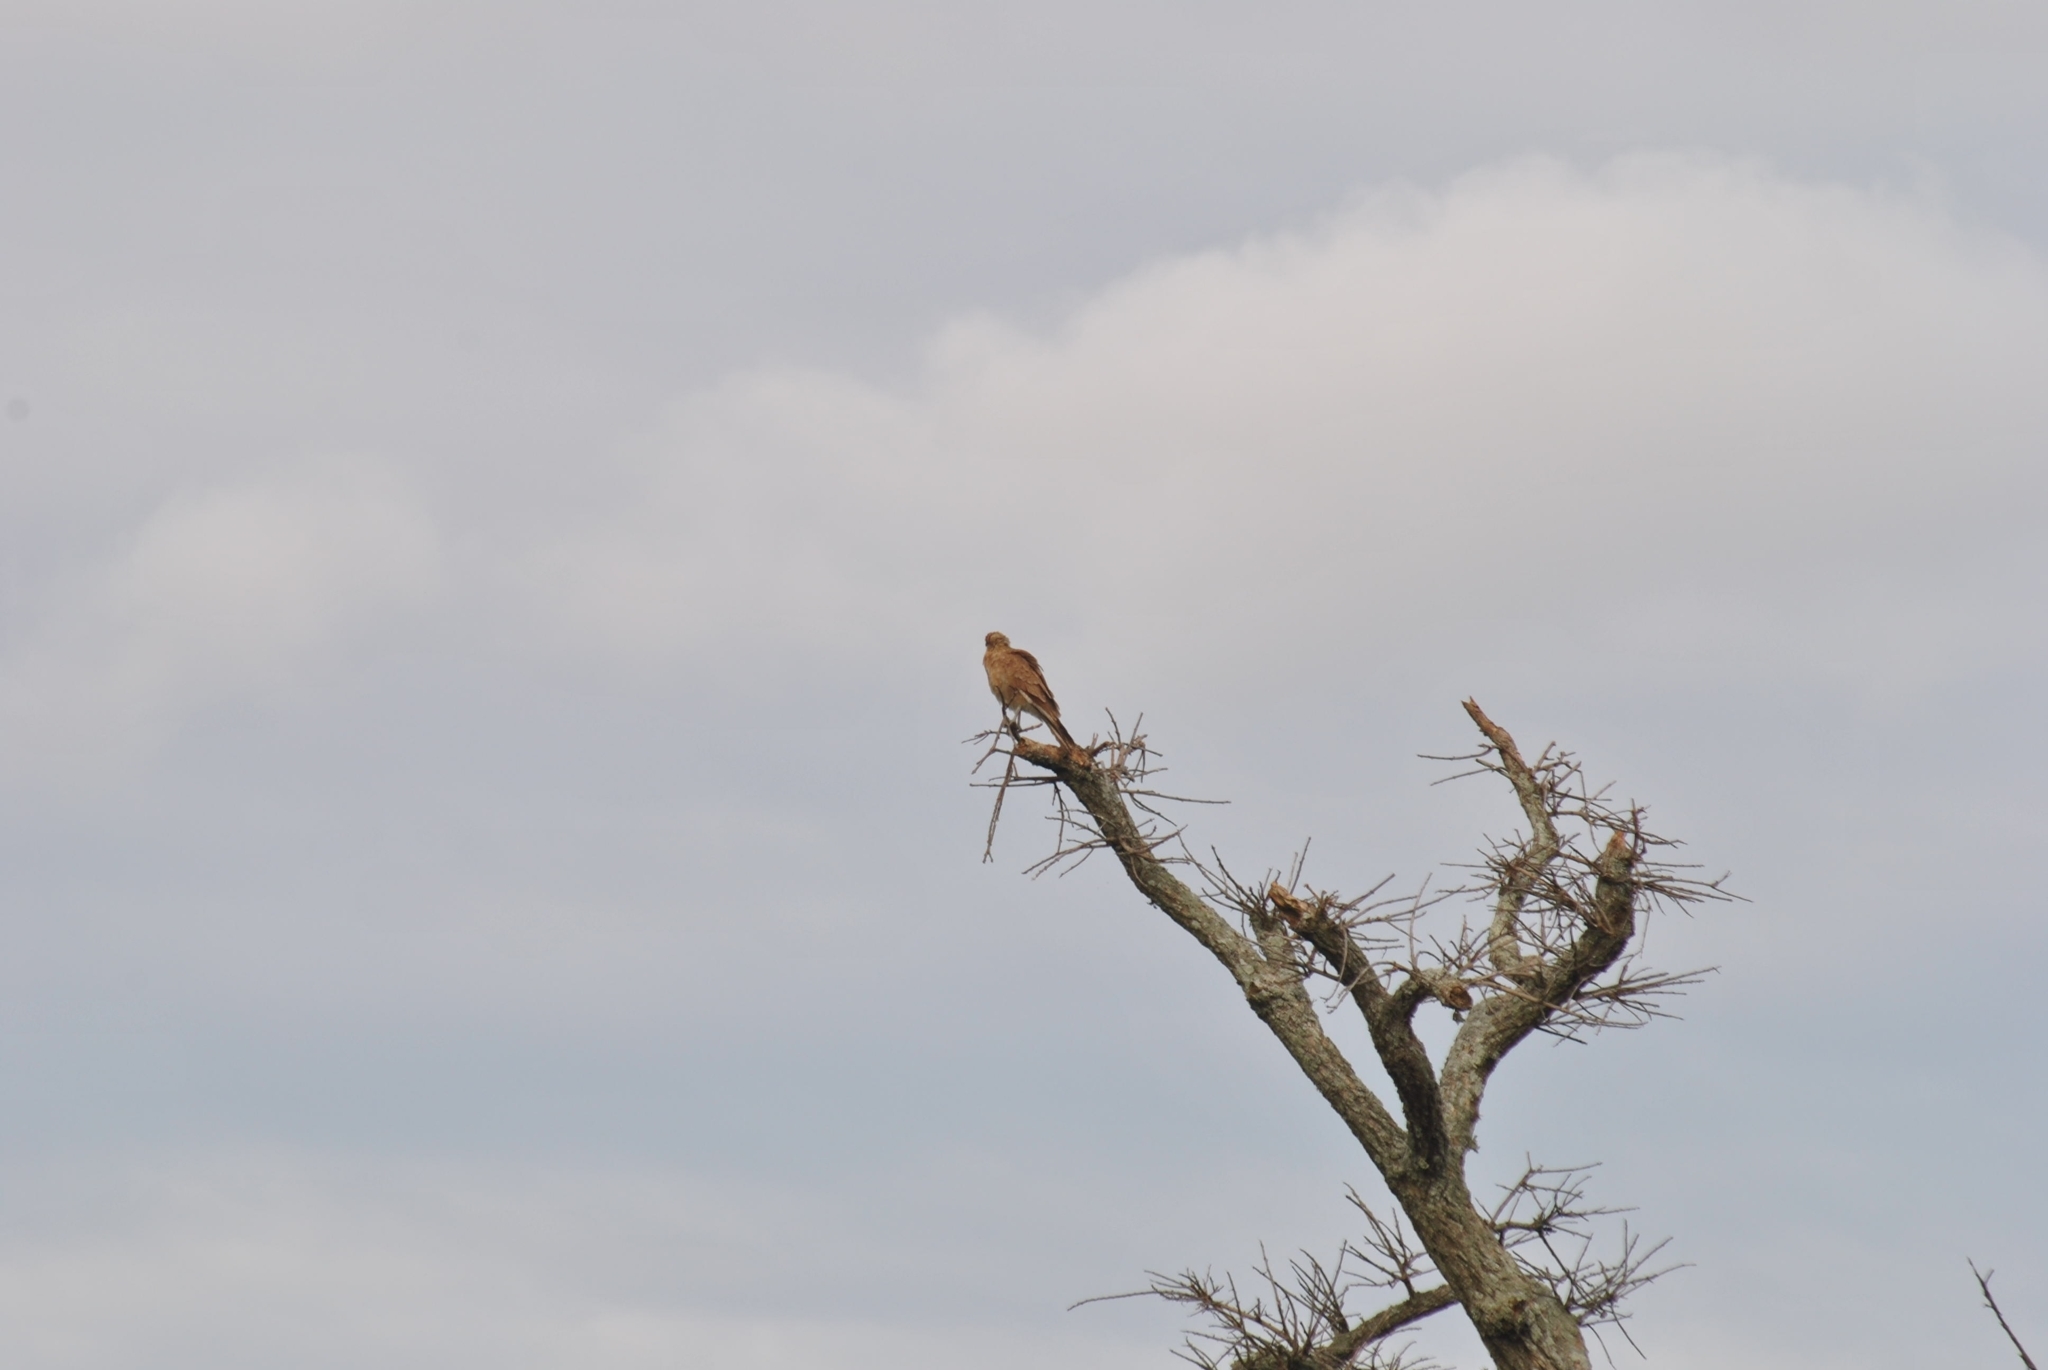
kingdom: Animalia
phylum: Chordata
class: Aves
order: Falconiformes
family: Falconidae
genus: Daptrius
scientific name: Daptrius
